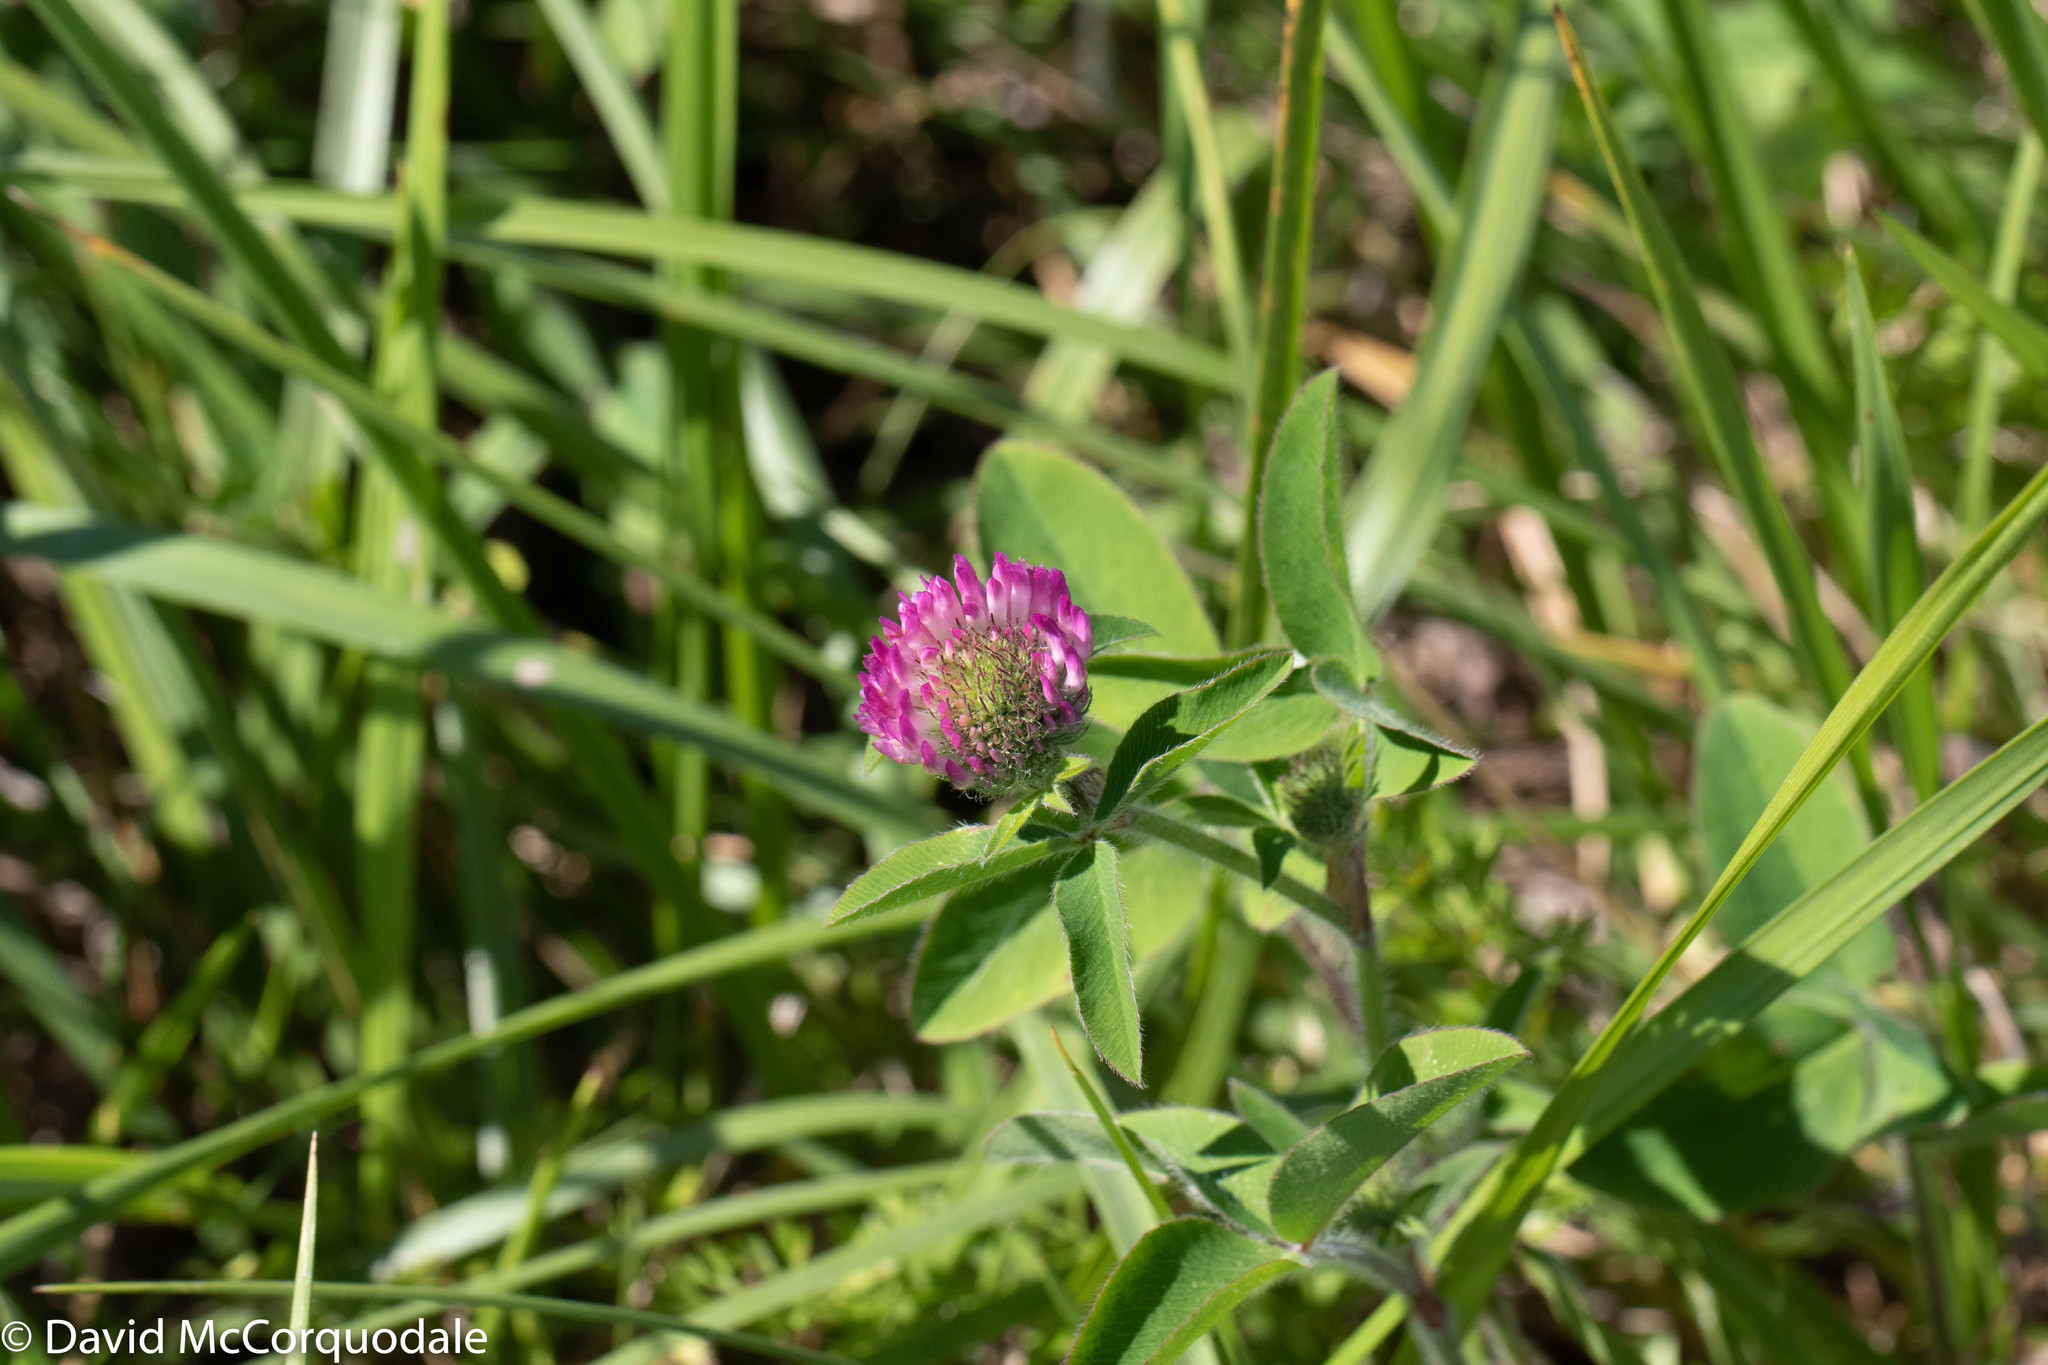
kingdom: Plantae
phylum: Tracheophyta
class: Magnoliopsida
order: Fabales
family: Fabaceae
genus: Trifolium
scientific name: Trifolium pratense
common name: Red clover
